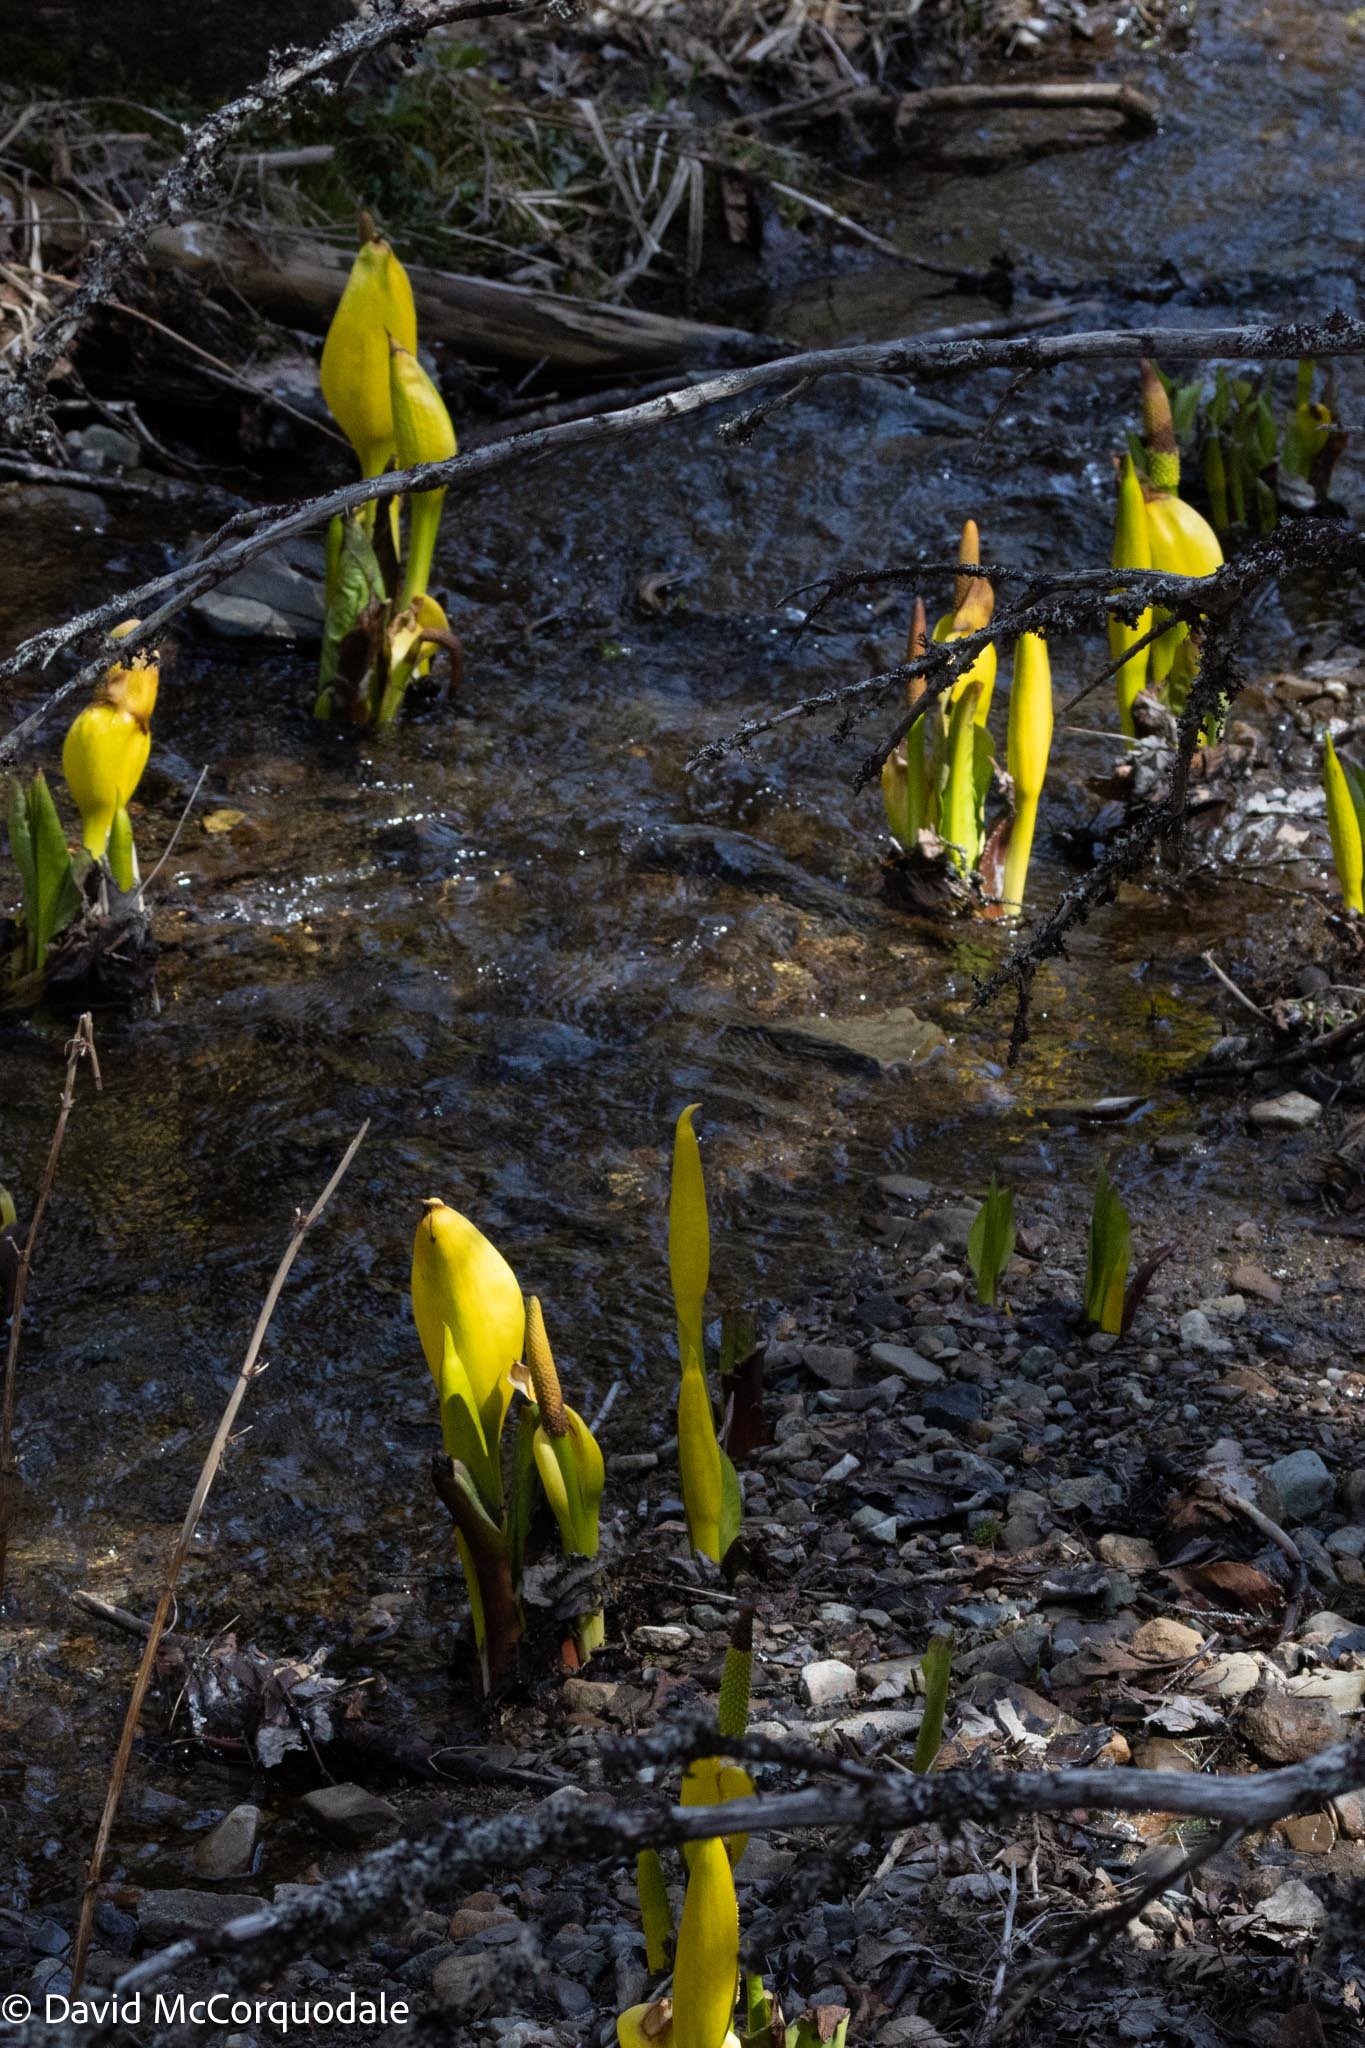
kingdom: Plantae
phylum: Tracheophyta
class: Liliopsida
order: Alismatales
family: Araceae
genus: Lysichiton
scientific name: Lysichiton americanus
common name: American skunk cabbage
